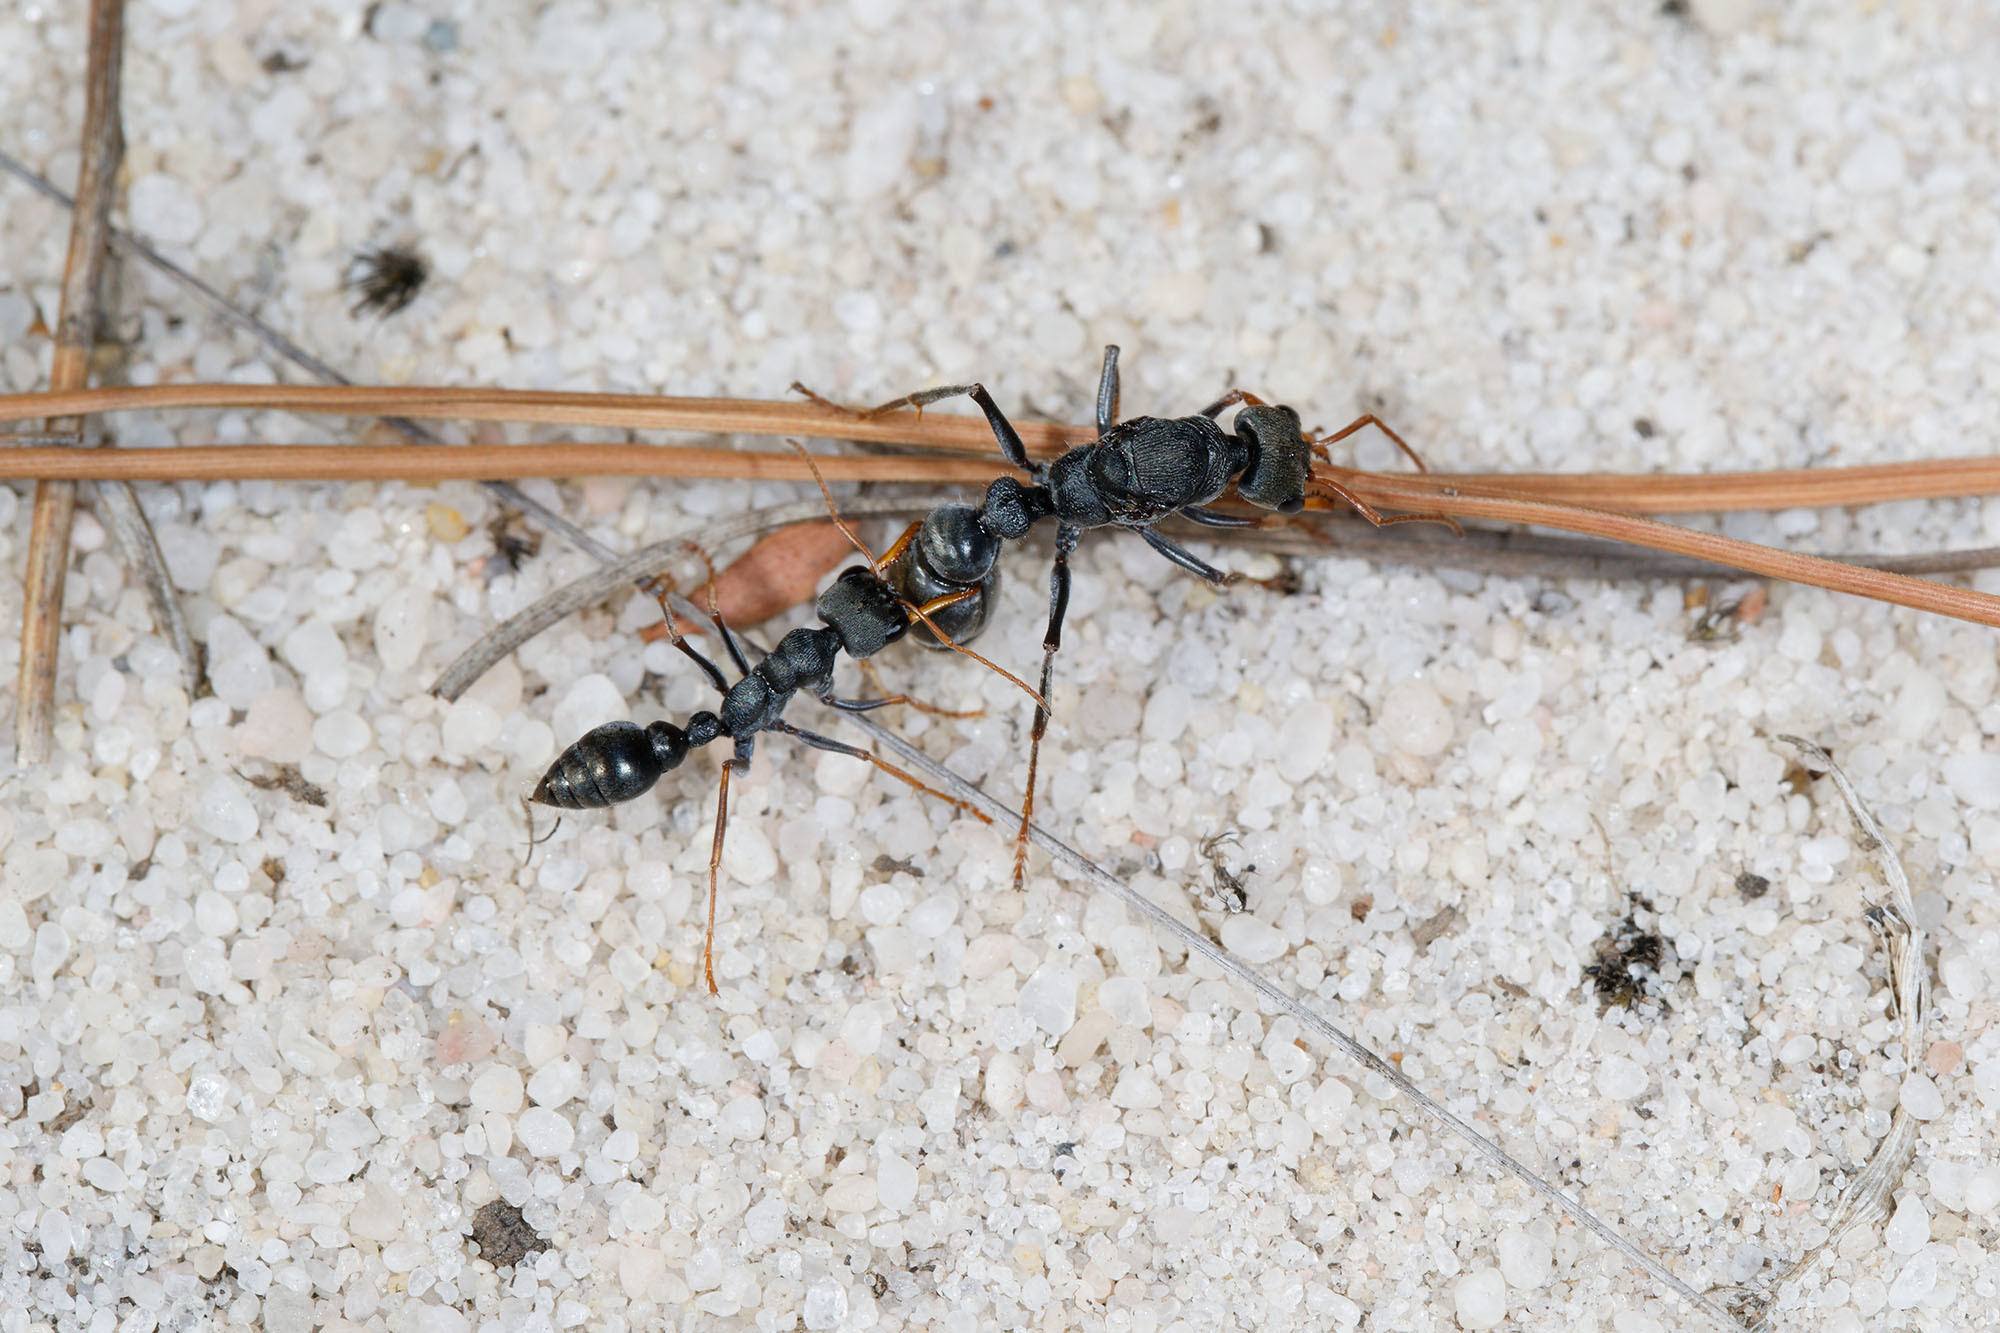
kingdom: Animalia
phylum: Arthropoda
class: Insecta
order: Hymenoptera
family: Formicidae
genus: Myrmecia
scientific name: Myrmecia pilosula
